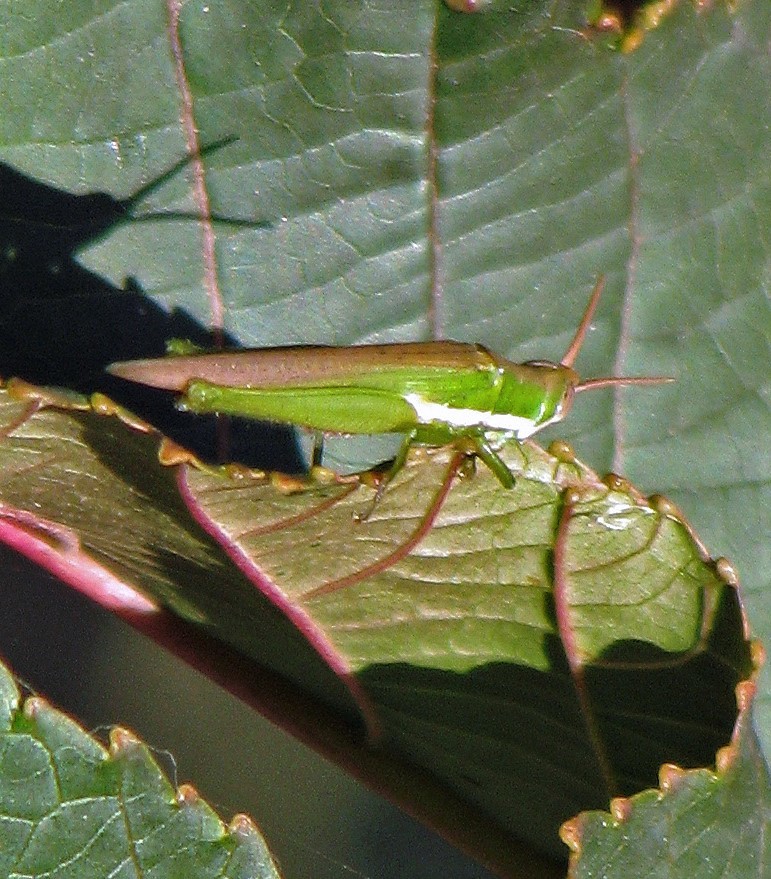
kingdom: Animalia
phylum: Arthropoda
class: Insecta
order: Orthoptera
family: Acrididae
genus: Tucayaca
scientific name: Tucayaca gracilis
